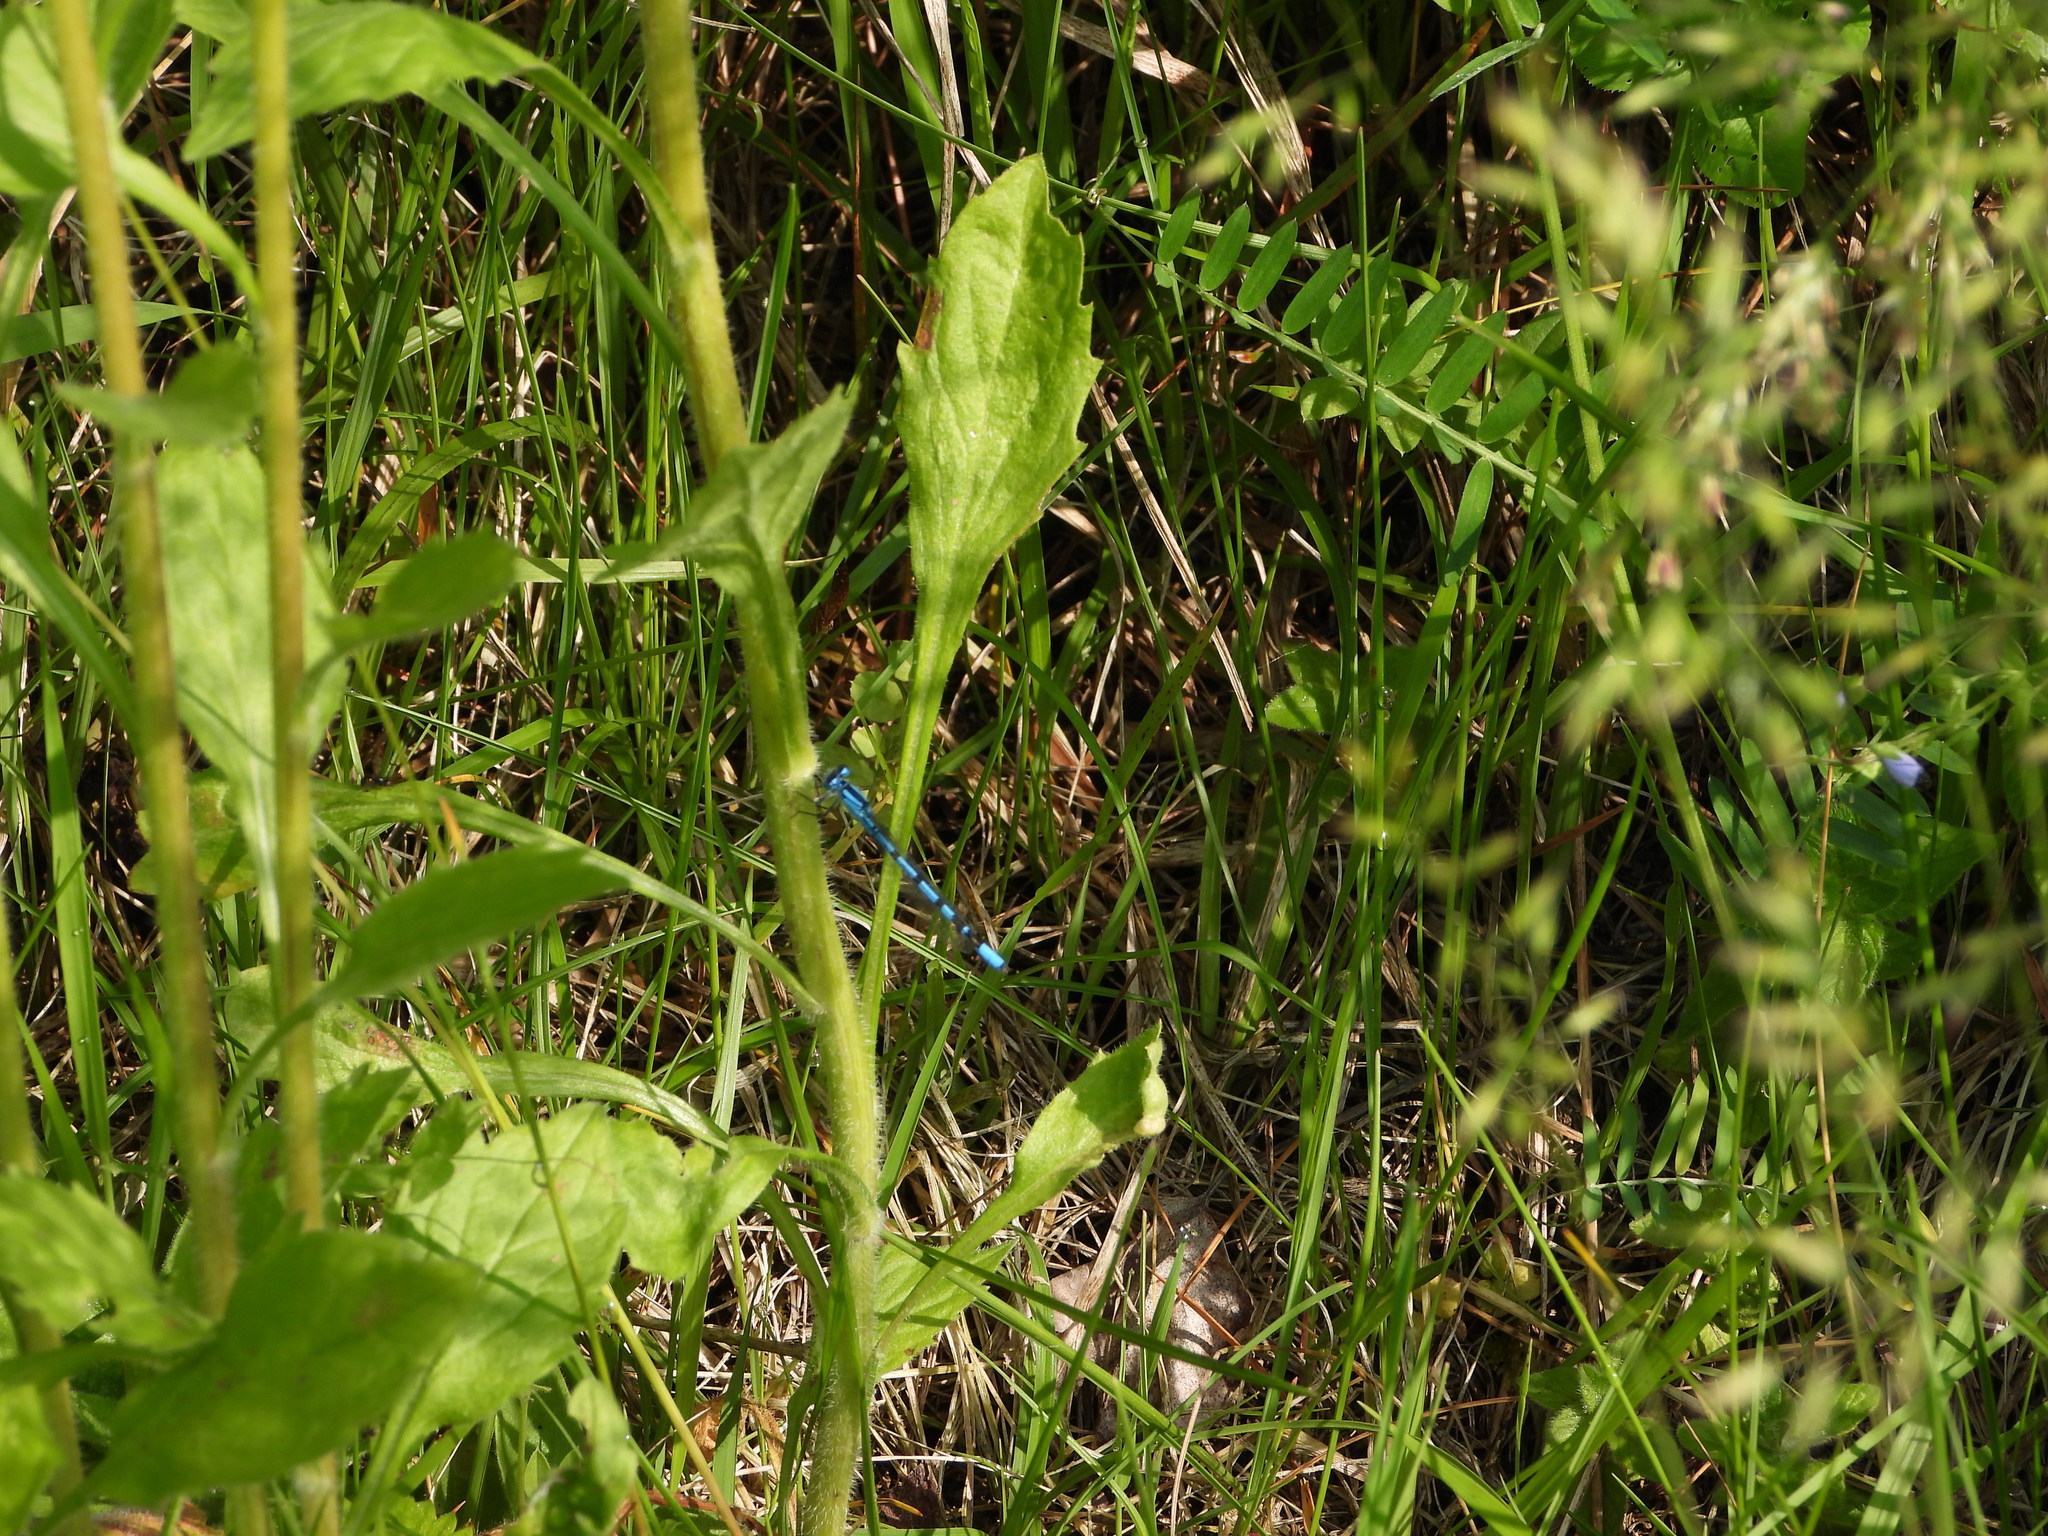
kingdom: Animalia
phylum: Arthropoda
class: Insecta
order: Odonata
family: Coenagrionidae
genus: Enallagma
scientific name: Enallagma cyathigerum
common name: Common blue damselfly
